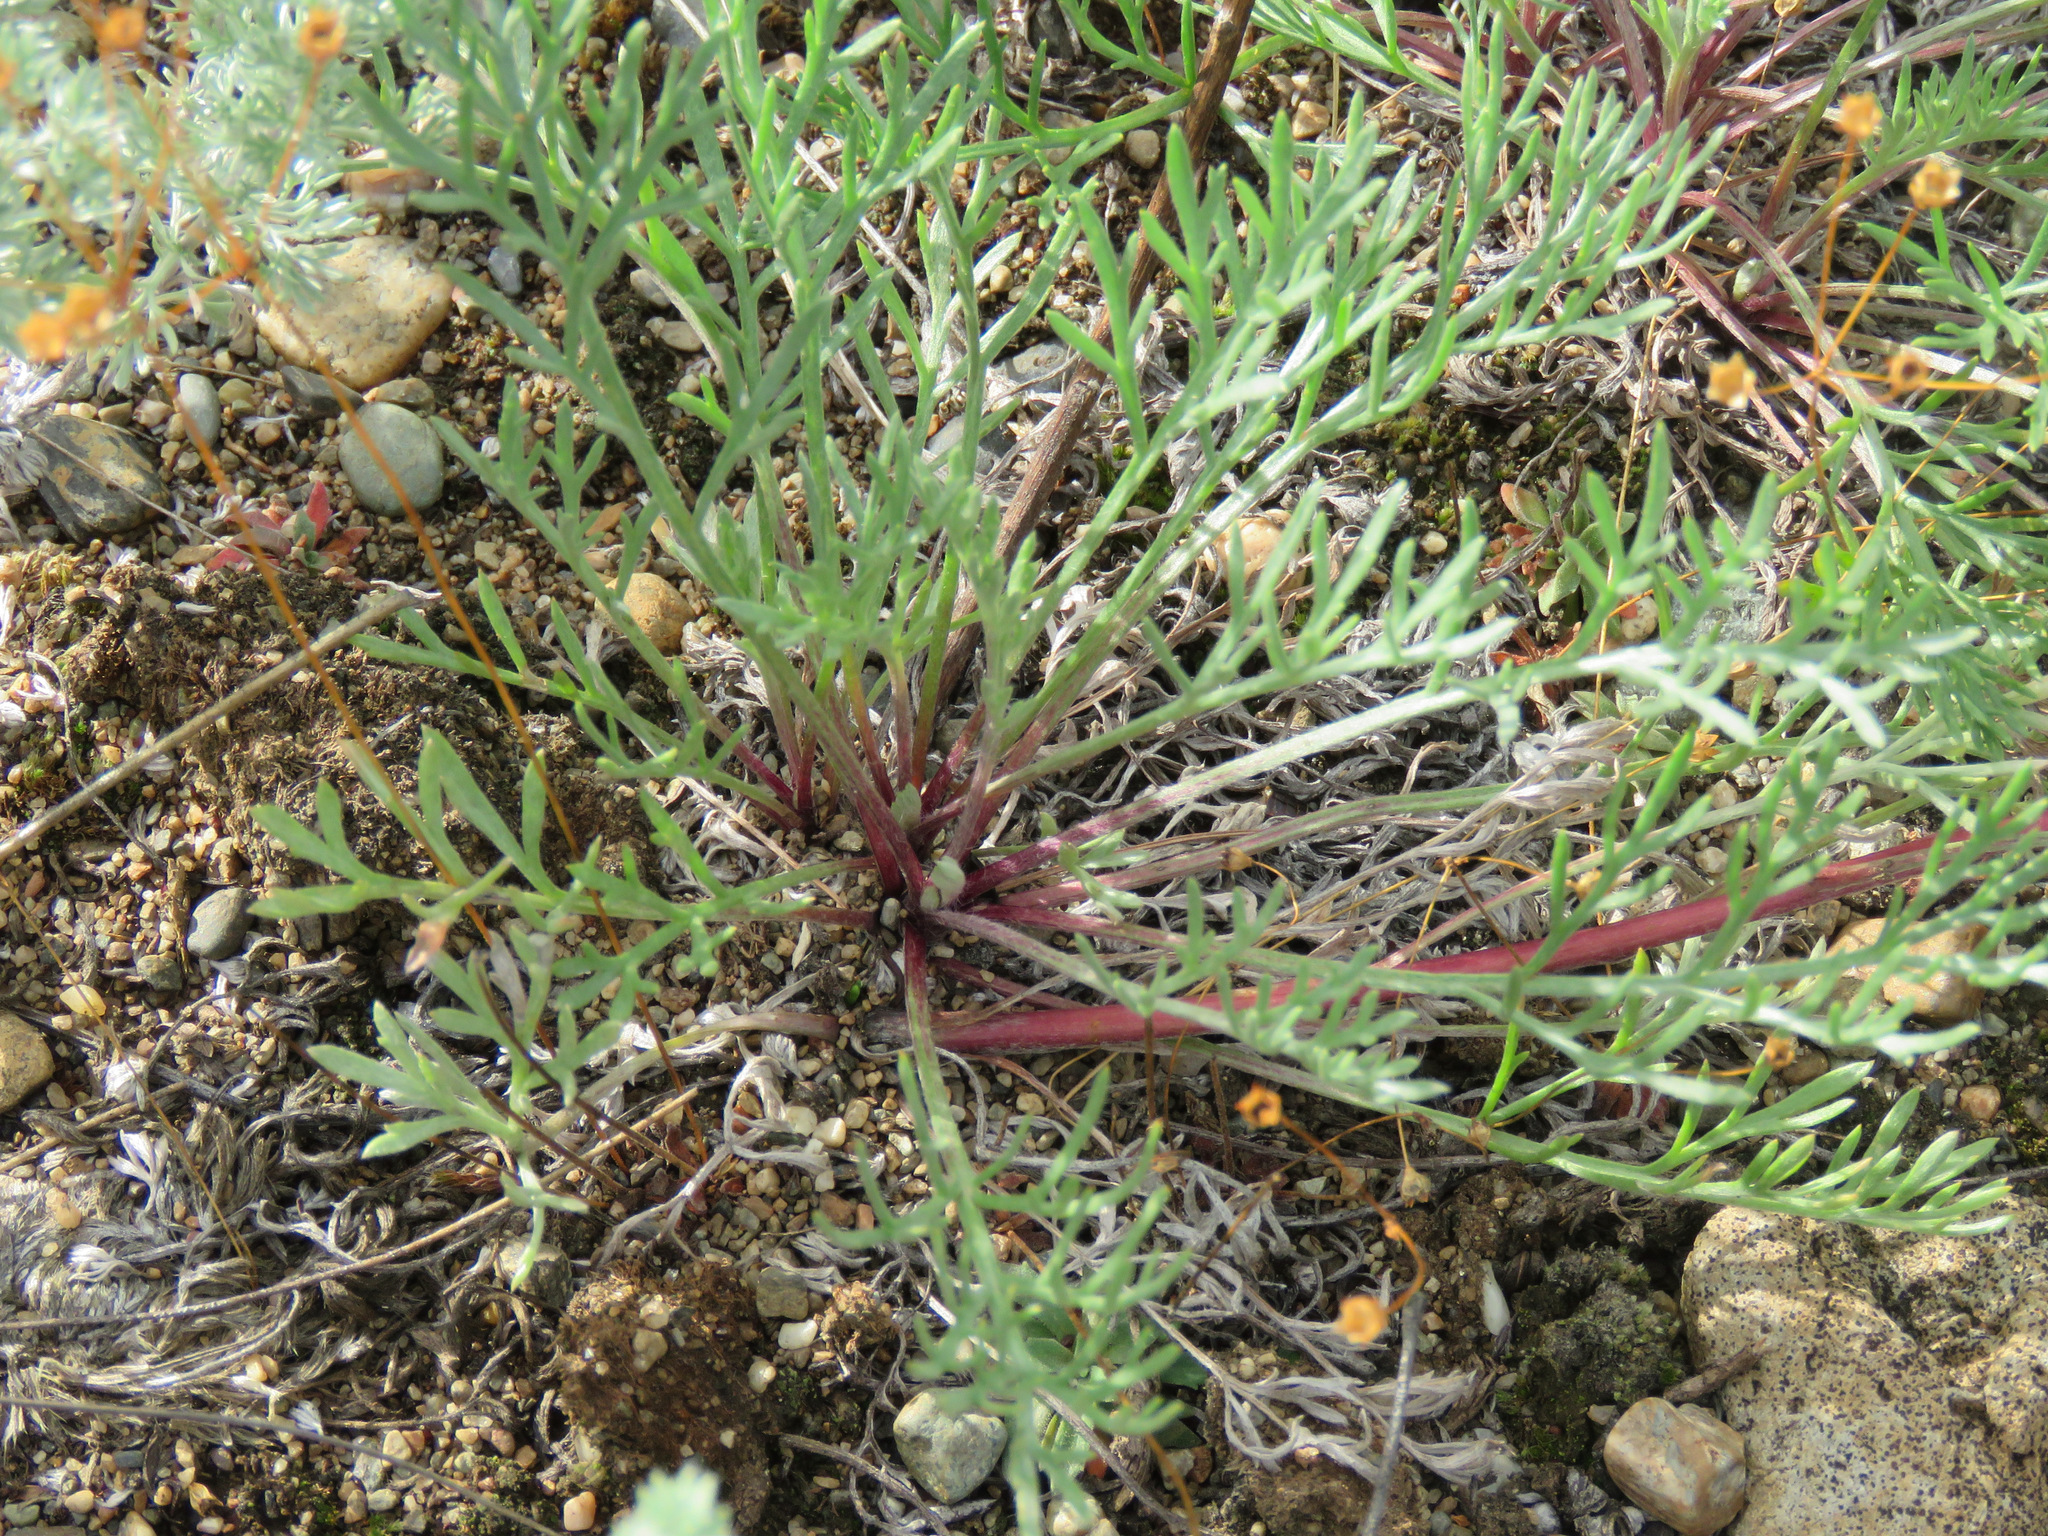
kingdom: Plantae
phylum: Tracheophyta
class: Magnoliopsida
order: Asterales
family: Asteraceae
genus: Artemisia
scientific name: Artemisia campestris
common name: Field wormwood
